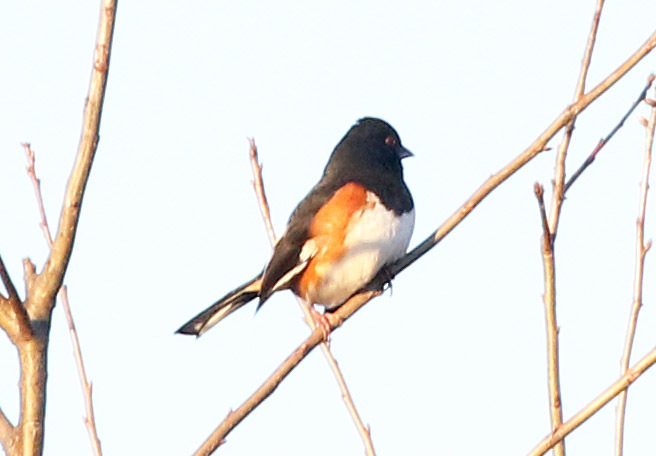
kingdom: Animalia
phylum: Chordata
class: Aves
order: Passeriformes
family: Passerellidae
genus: Pipilo
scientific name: Pipilo erythrophthalmus
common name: Eastern towhee
